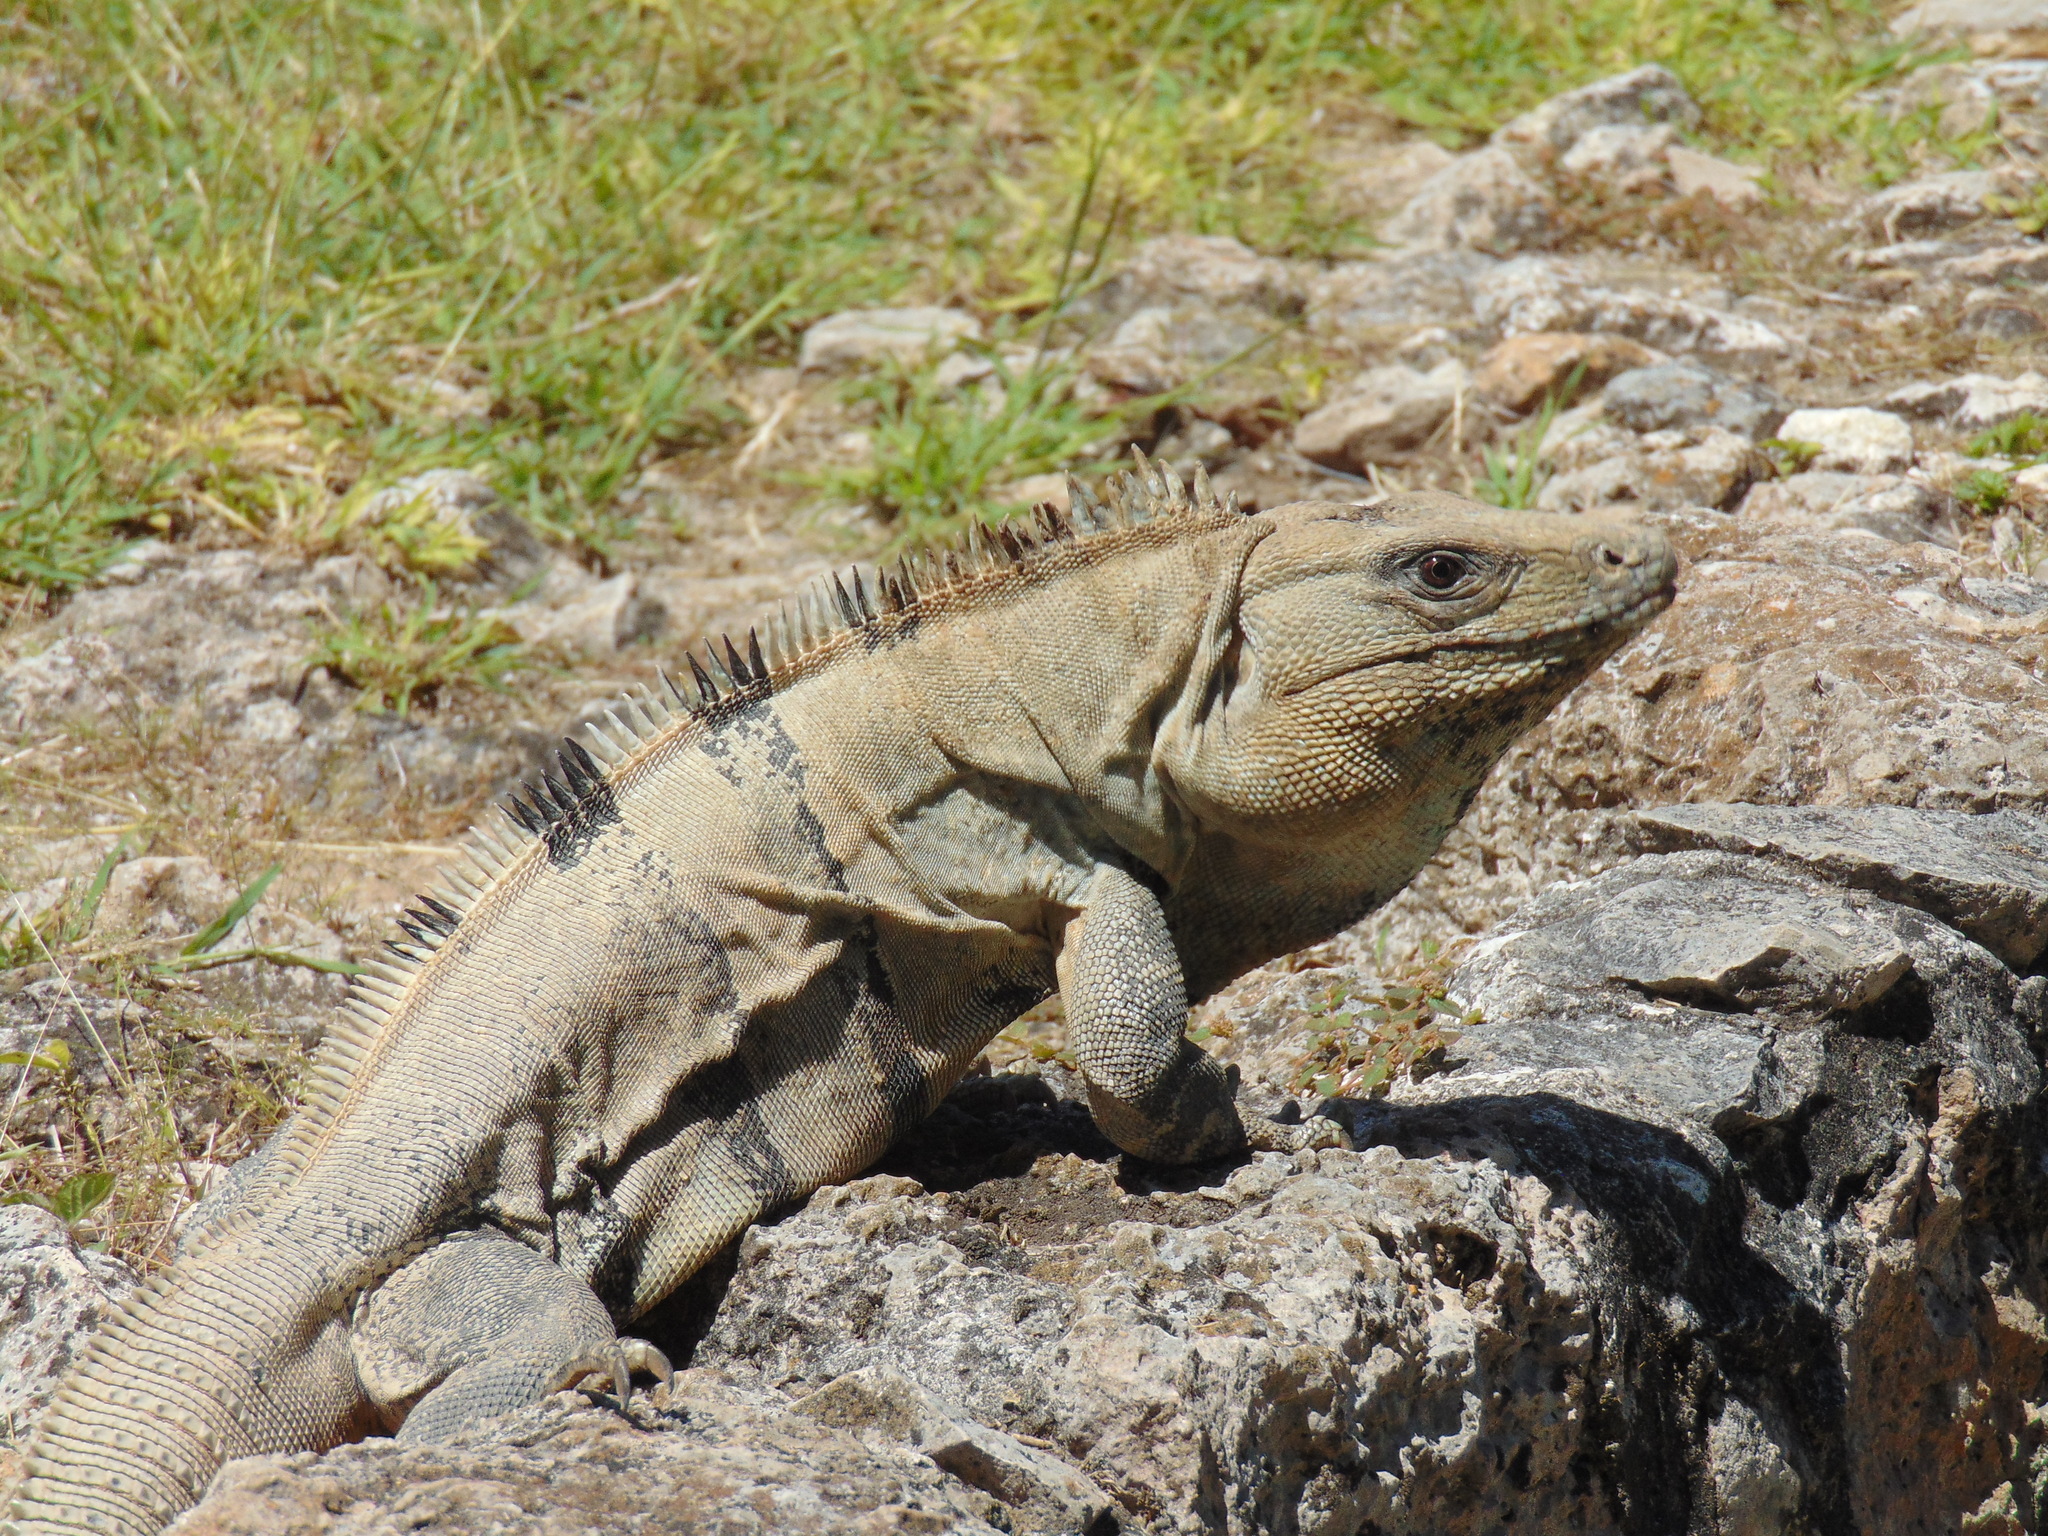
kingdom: Animalia
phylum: Chordata
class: Squamata
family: Iguanidae
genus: Ctenosaura
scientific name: Ctenosaura similis
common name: Black spiny-tailed iguana
